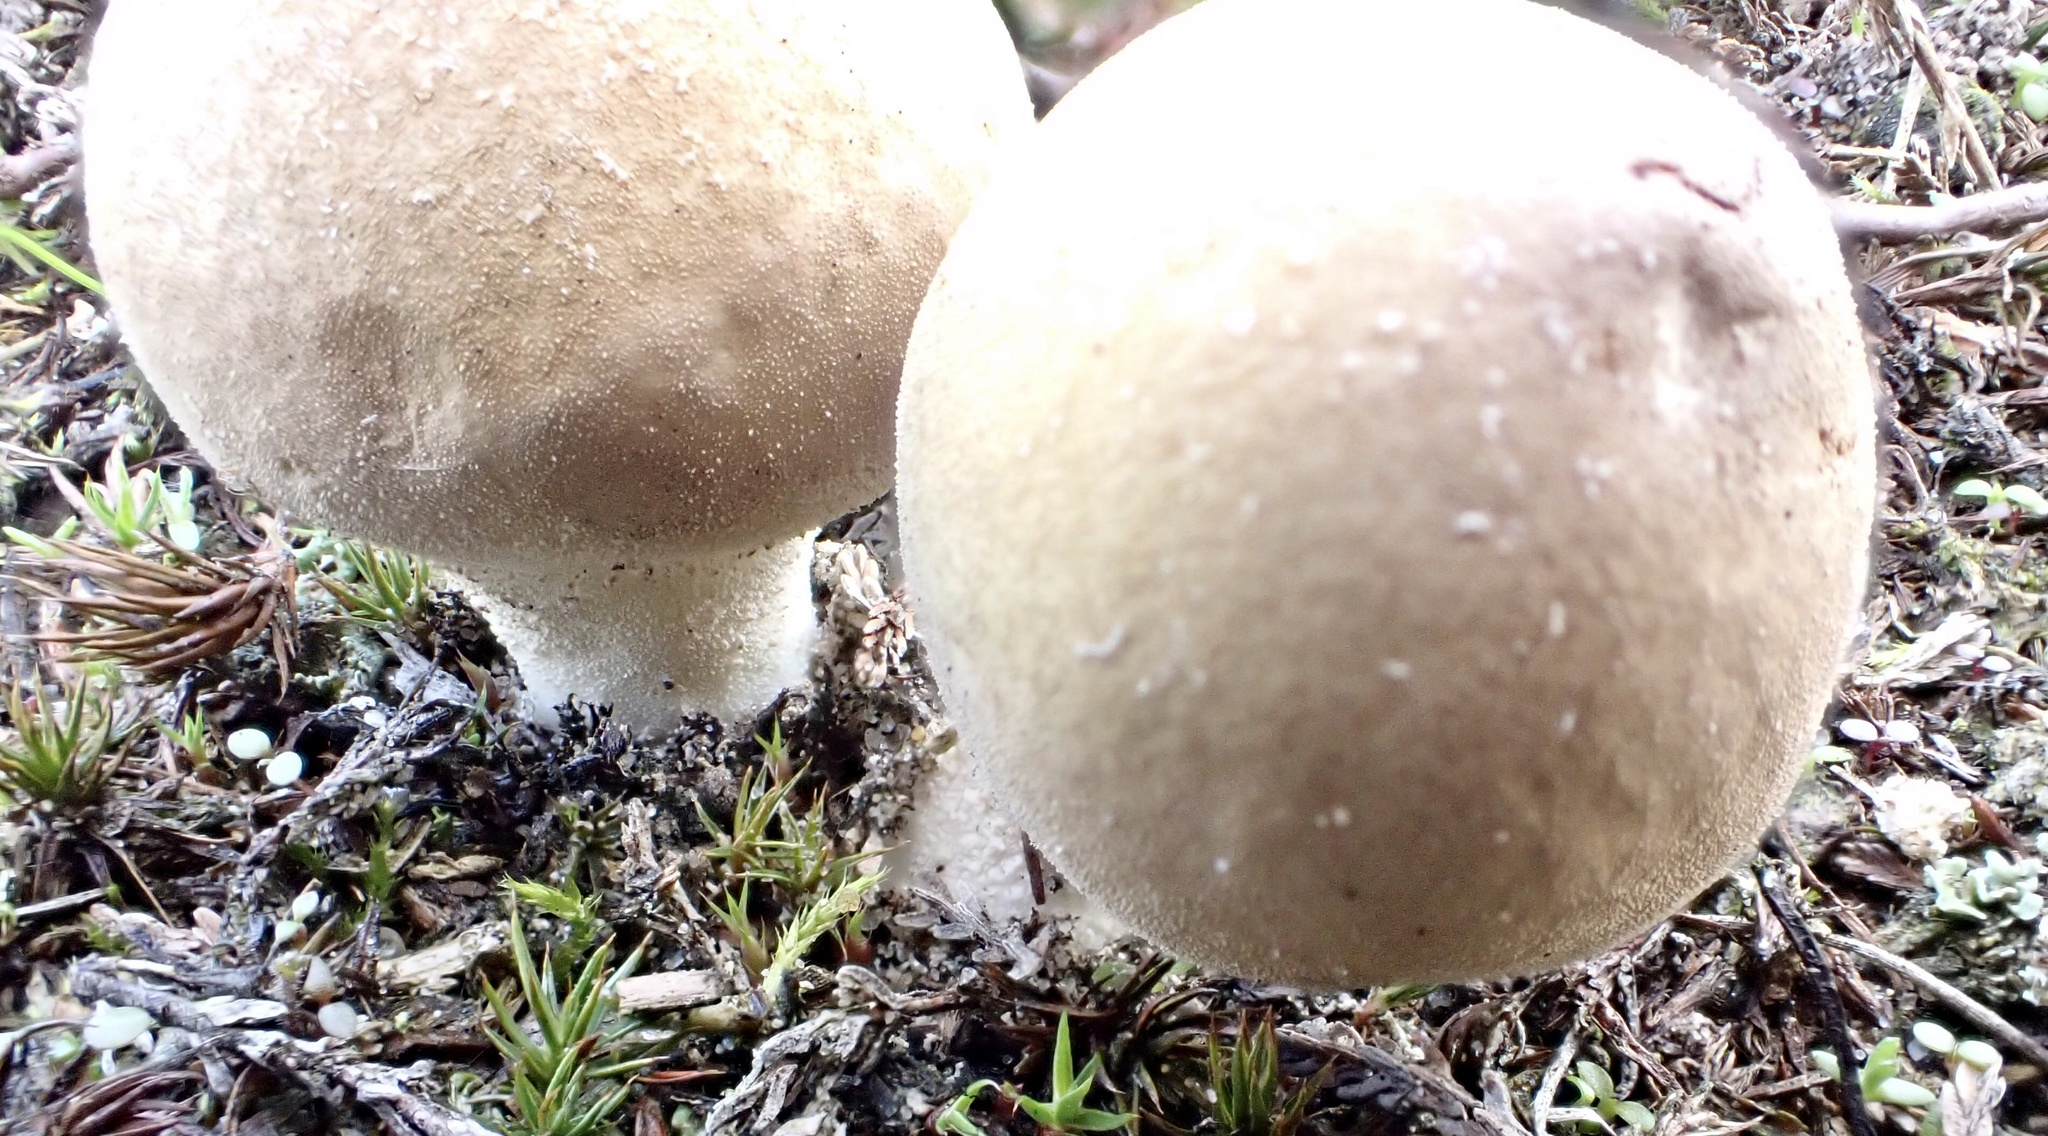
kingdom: Fungi
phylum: Basidiomycota
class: Agaricomycetes
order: Agaricales
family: Lycoperdaceae
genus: Lycoperdon
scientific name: Lycoperdon excipuliforme
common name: Pestle puffball
